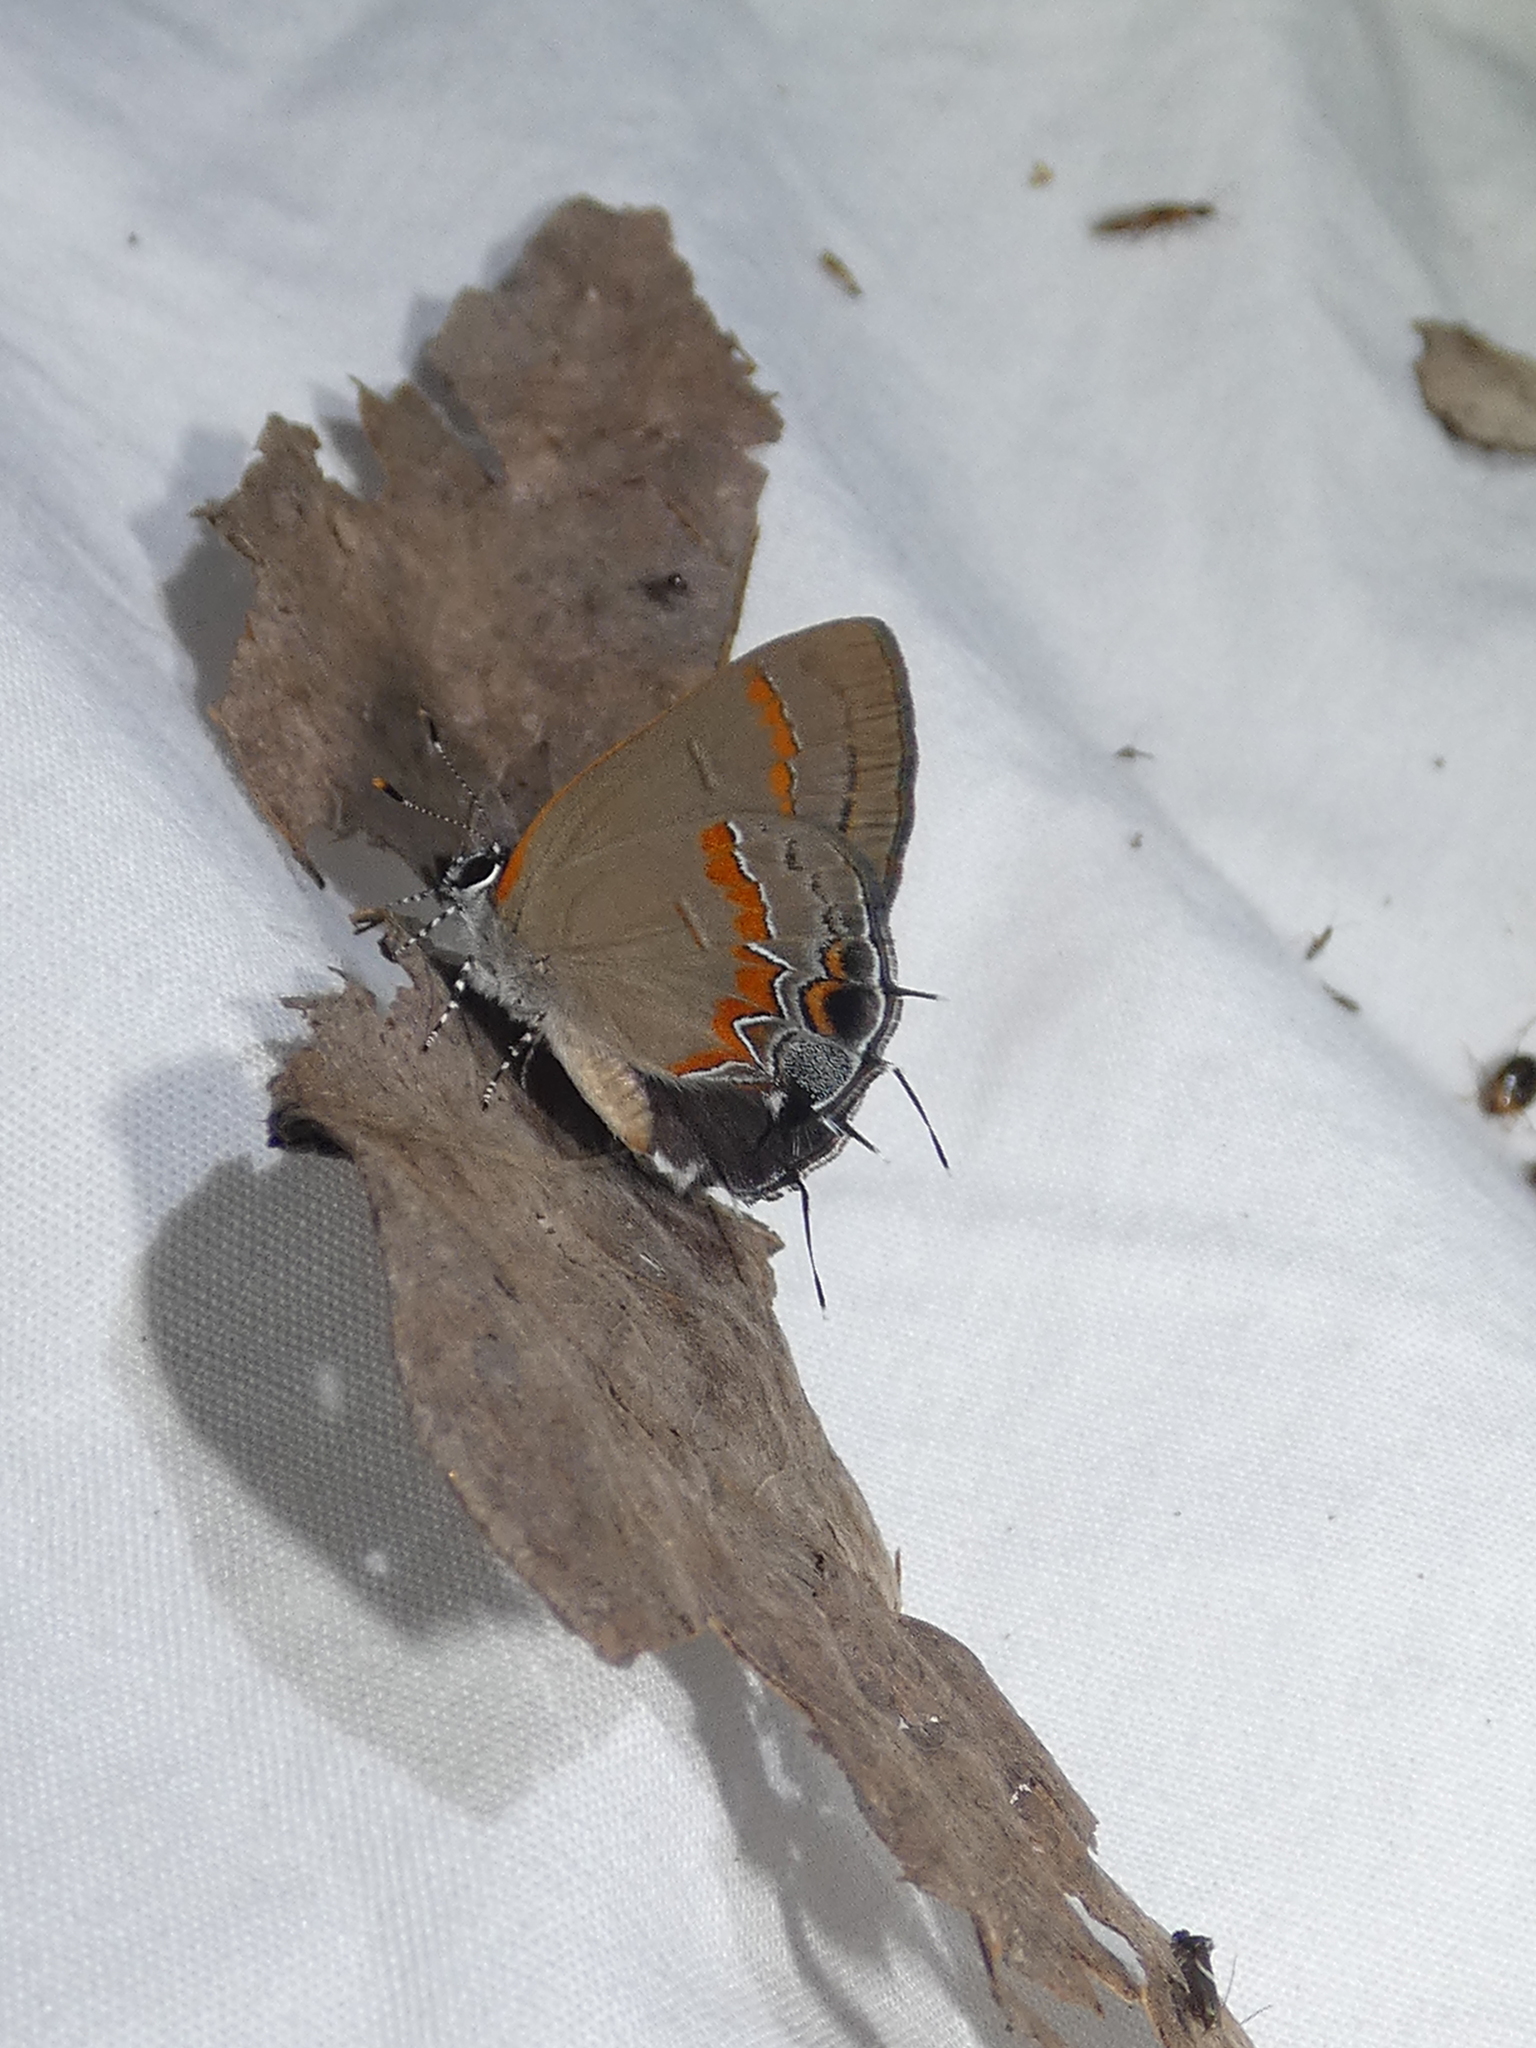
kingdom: Animalia
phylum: Arthropoda
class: Insecta
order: Lepidoptera
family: Lycaenidae
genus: Calycopis
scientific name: Calycopis cecrops
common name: Red-banded hairstreak
